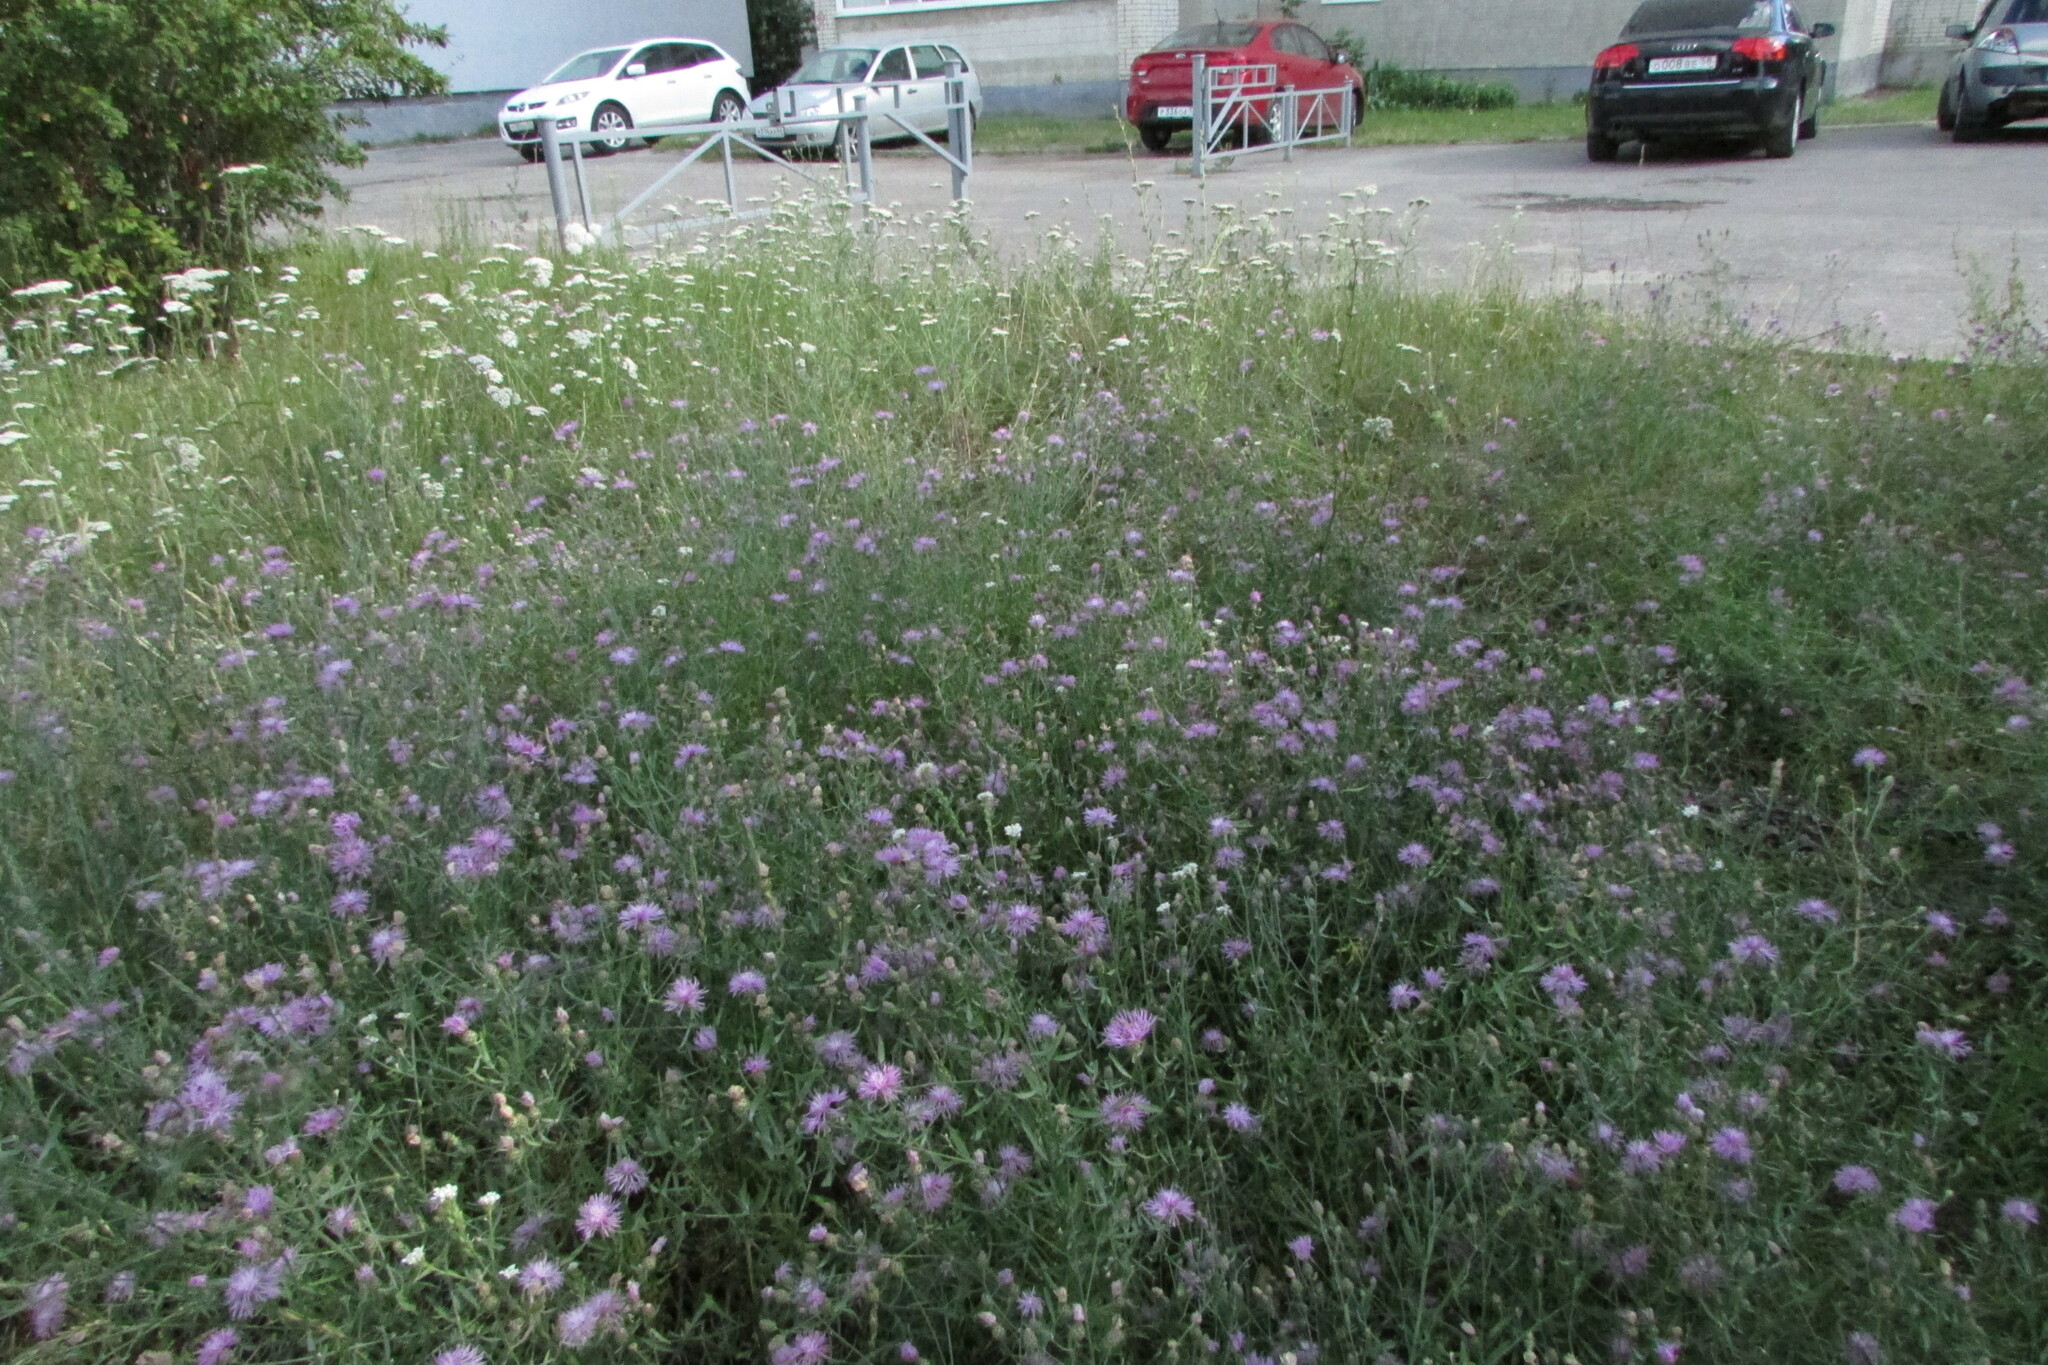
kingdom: Plantae
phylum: Tracheophyta
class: Magnoliopsida
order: Asterales
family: Asteraceae
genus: Centaurea
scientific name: Centaurea stoebe
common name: Spotted knapweed
